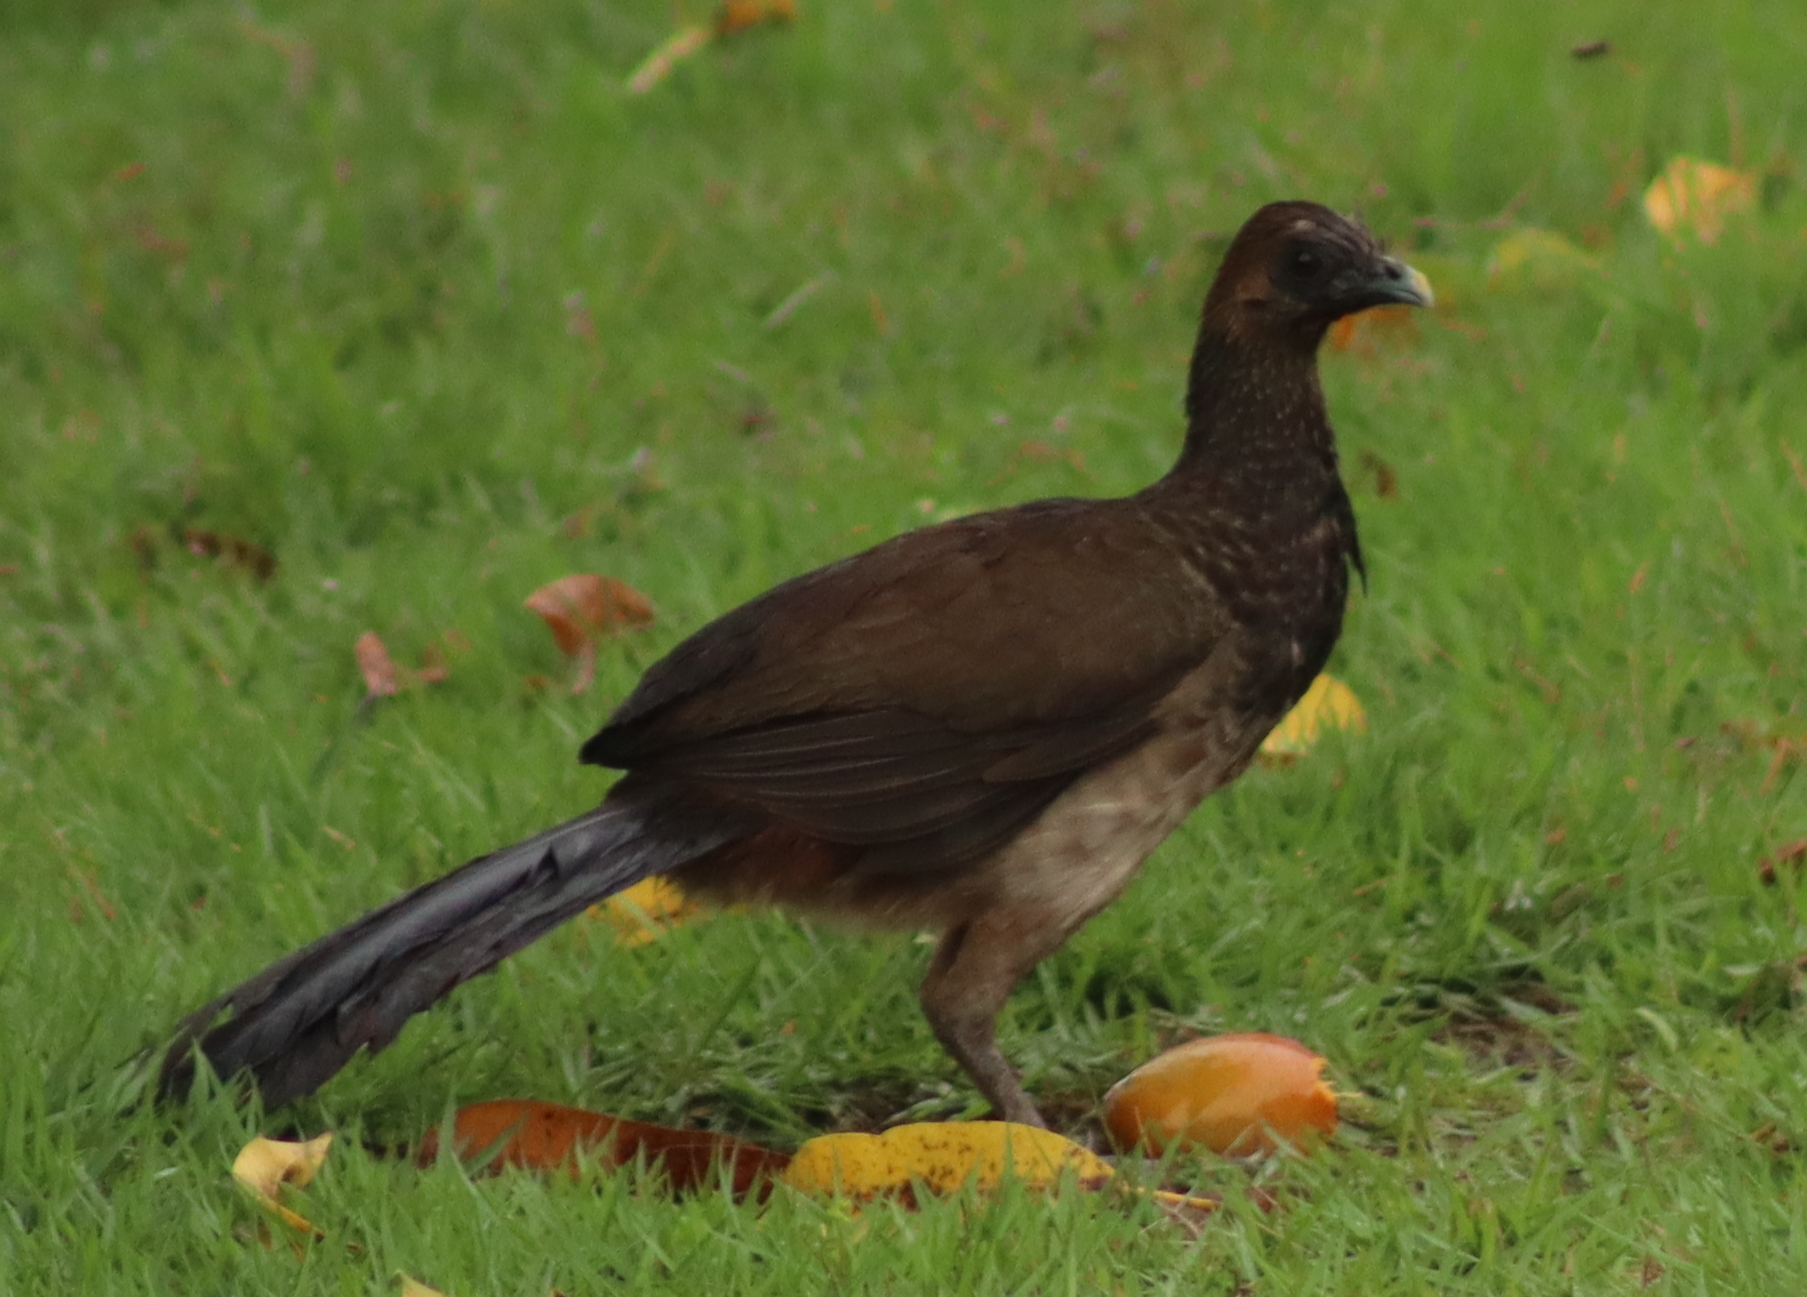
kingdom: Animalia
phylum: Chordata
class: Aves
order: Galliformes
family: Cracidae
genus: Ortalis
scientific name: Ortalis araucuan
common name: East brazilian chachalaca
